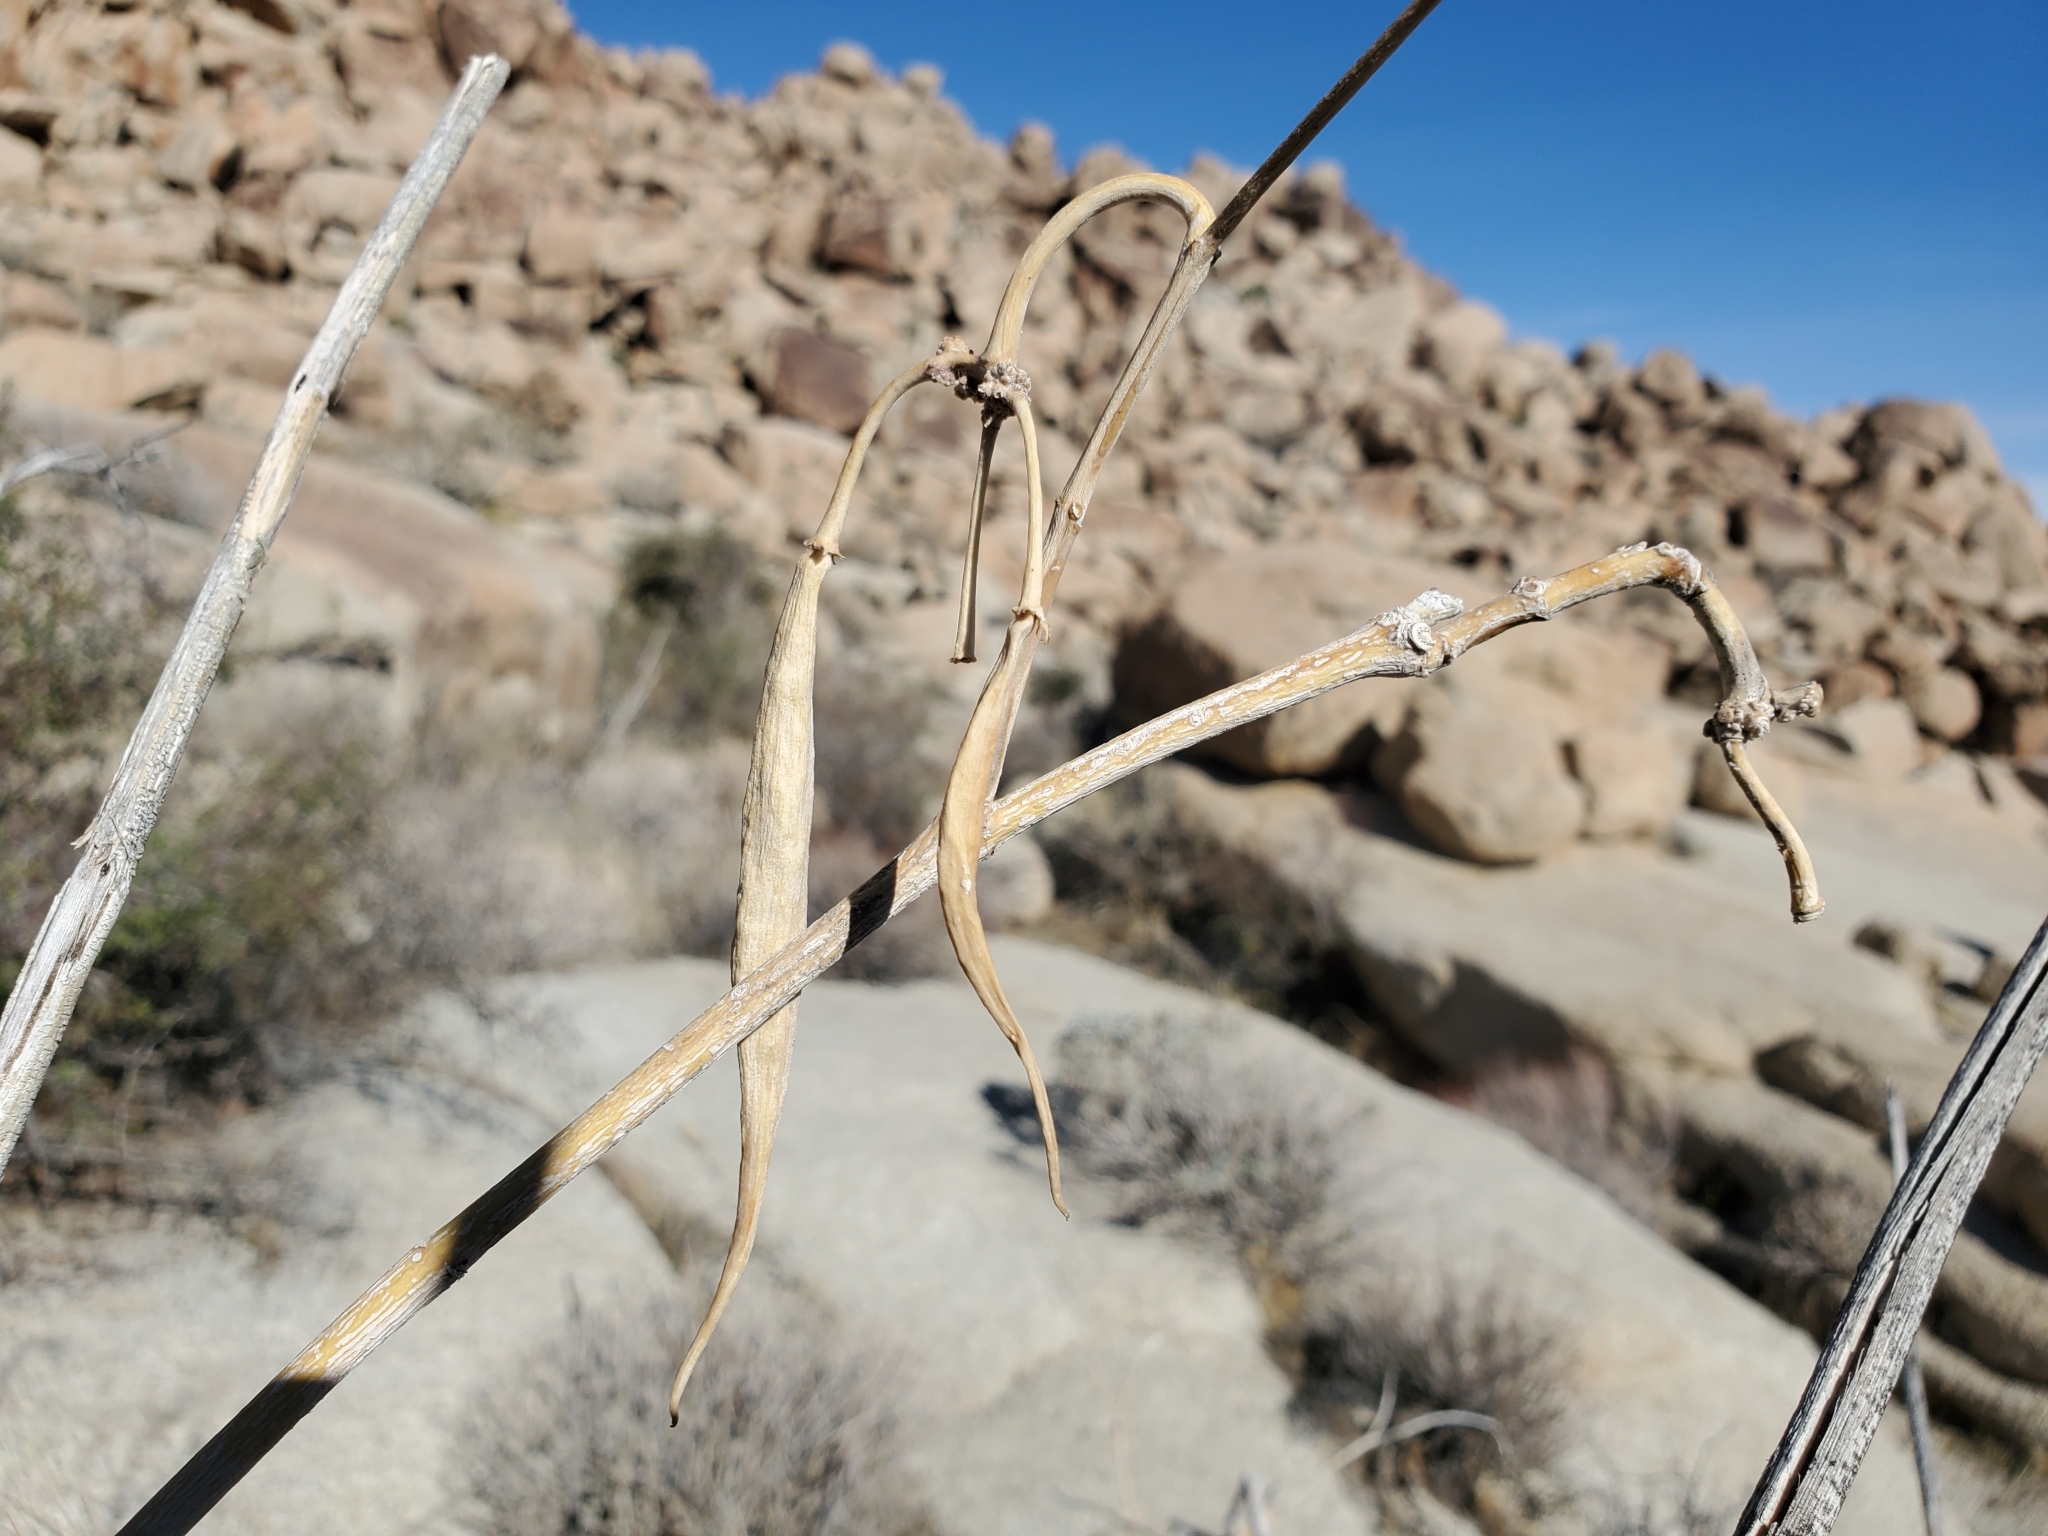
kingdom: Plantae
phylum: Tracheophyta
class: Magnoliopsida
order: Gentianales
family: Apocynaceae
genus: Asclepias
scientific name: Asclepias albicans
